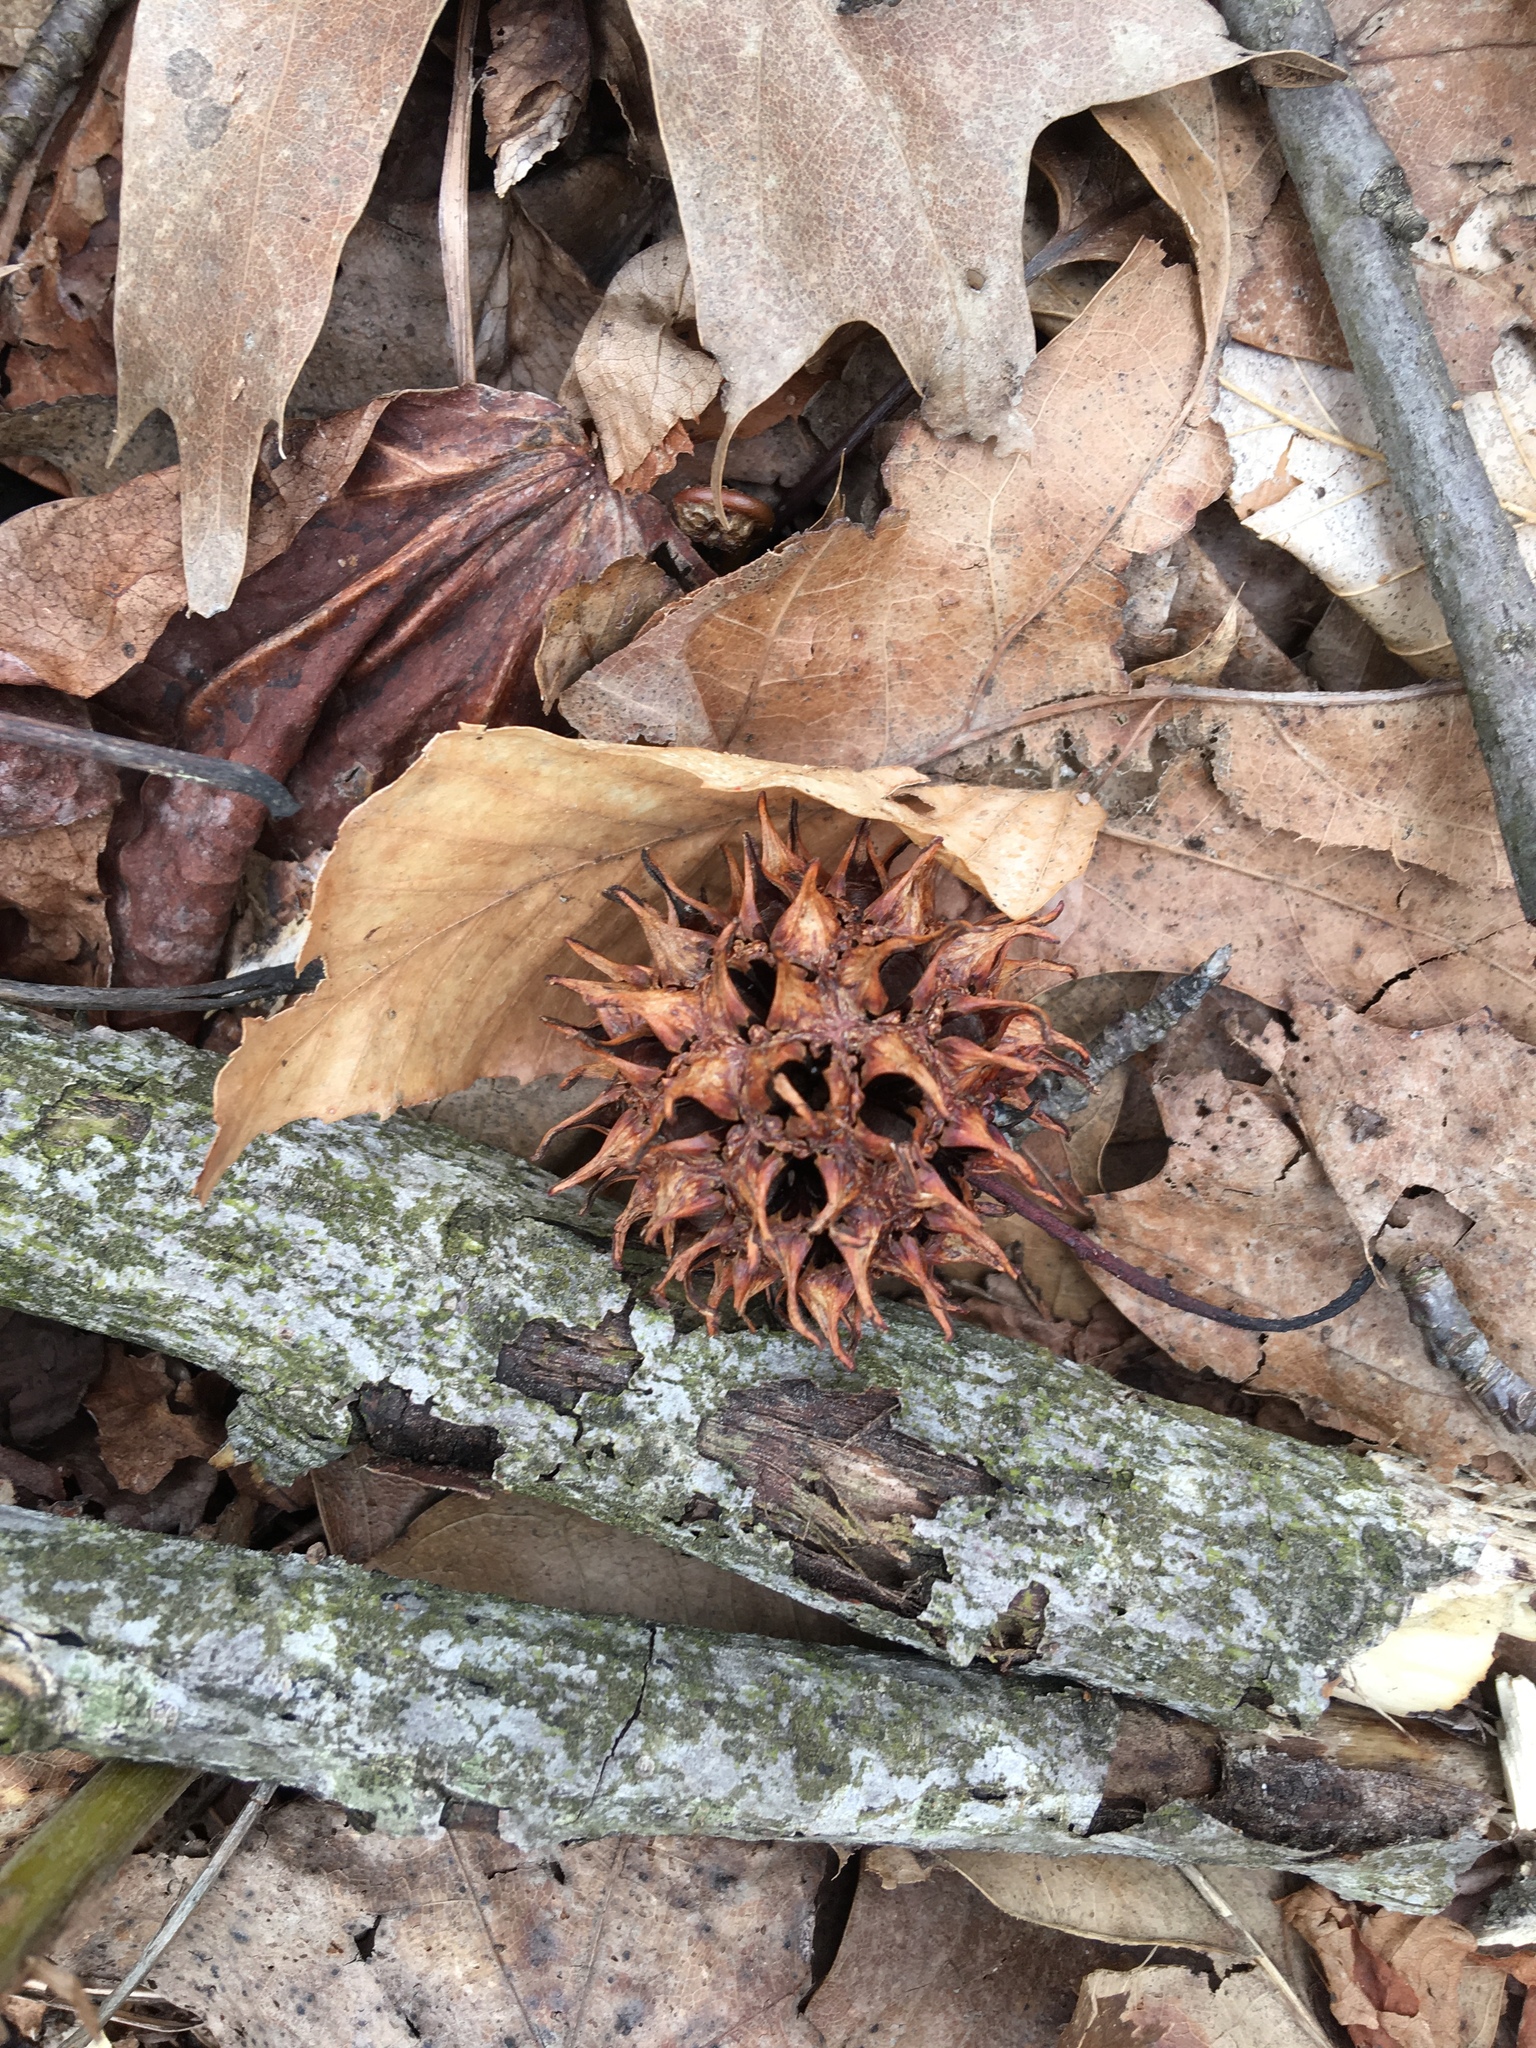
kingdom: Plantae
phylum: Tracheophyta
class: Magnoliopsida
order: Saxifragales
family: Altingiaceae
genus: Liquidambar
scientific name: Liquidambar styraciflua
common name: Sweet gum
